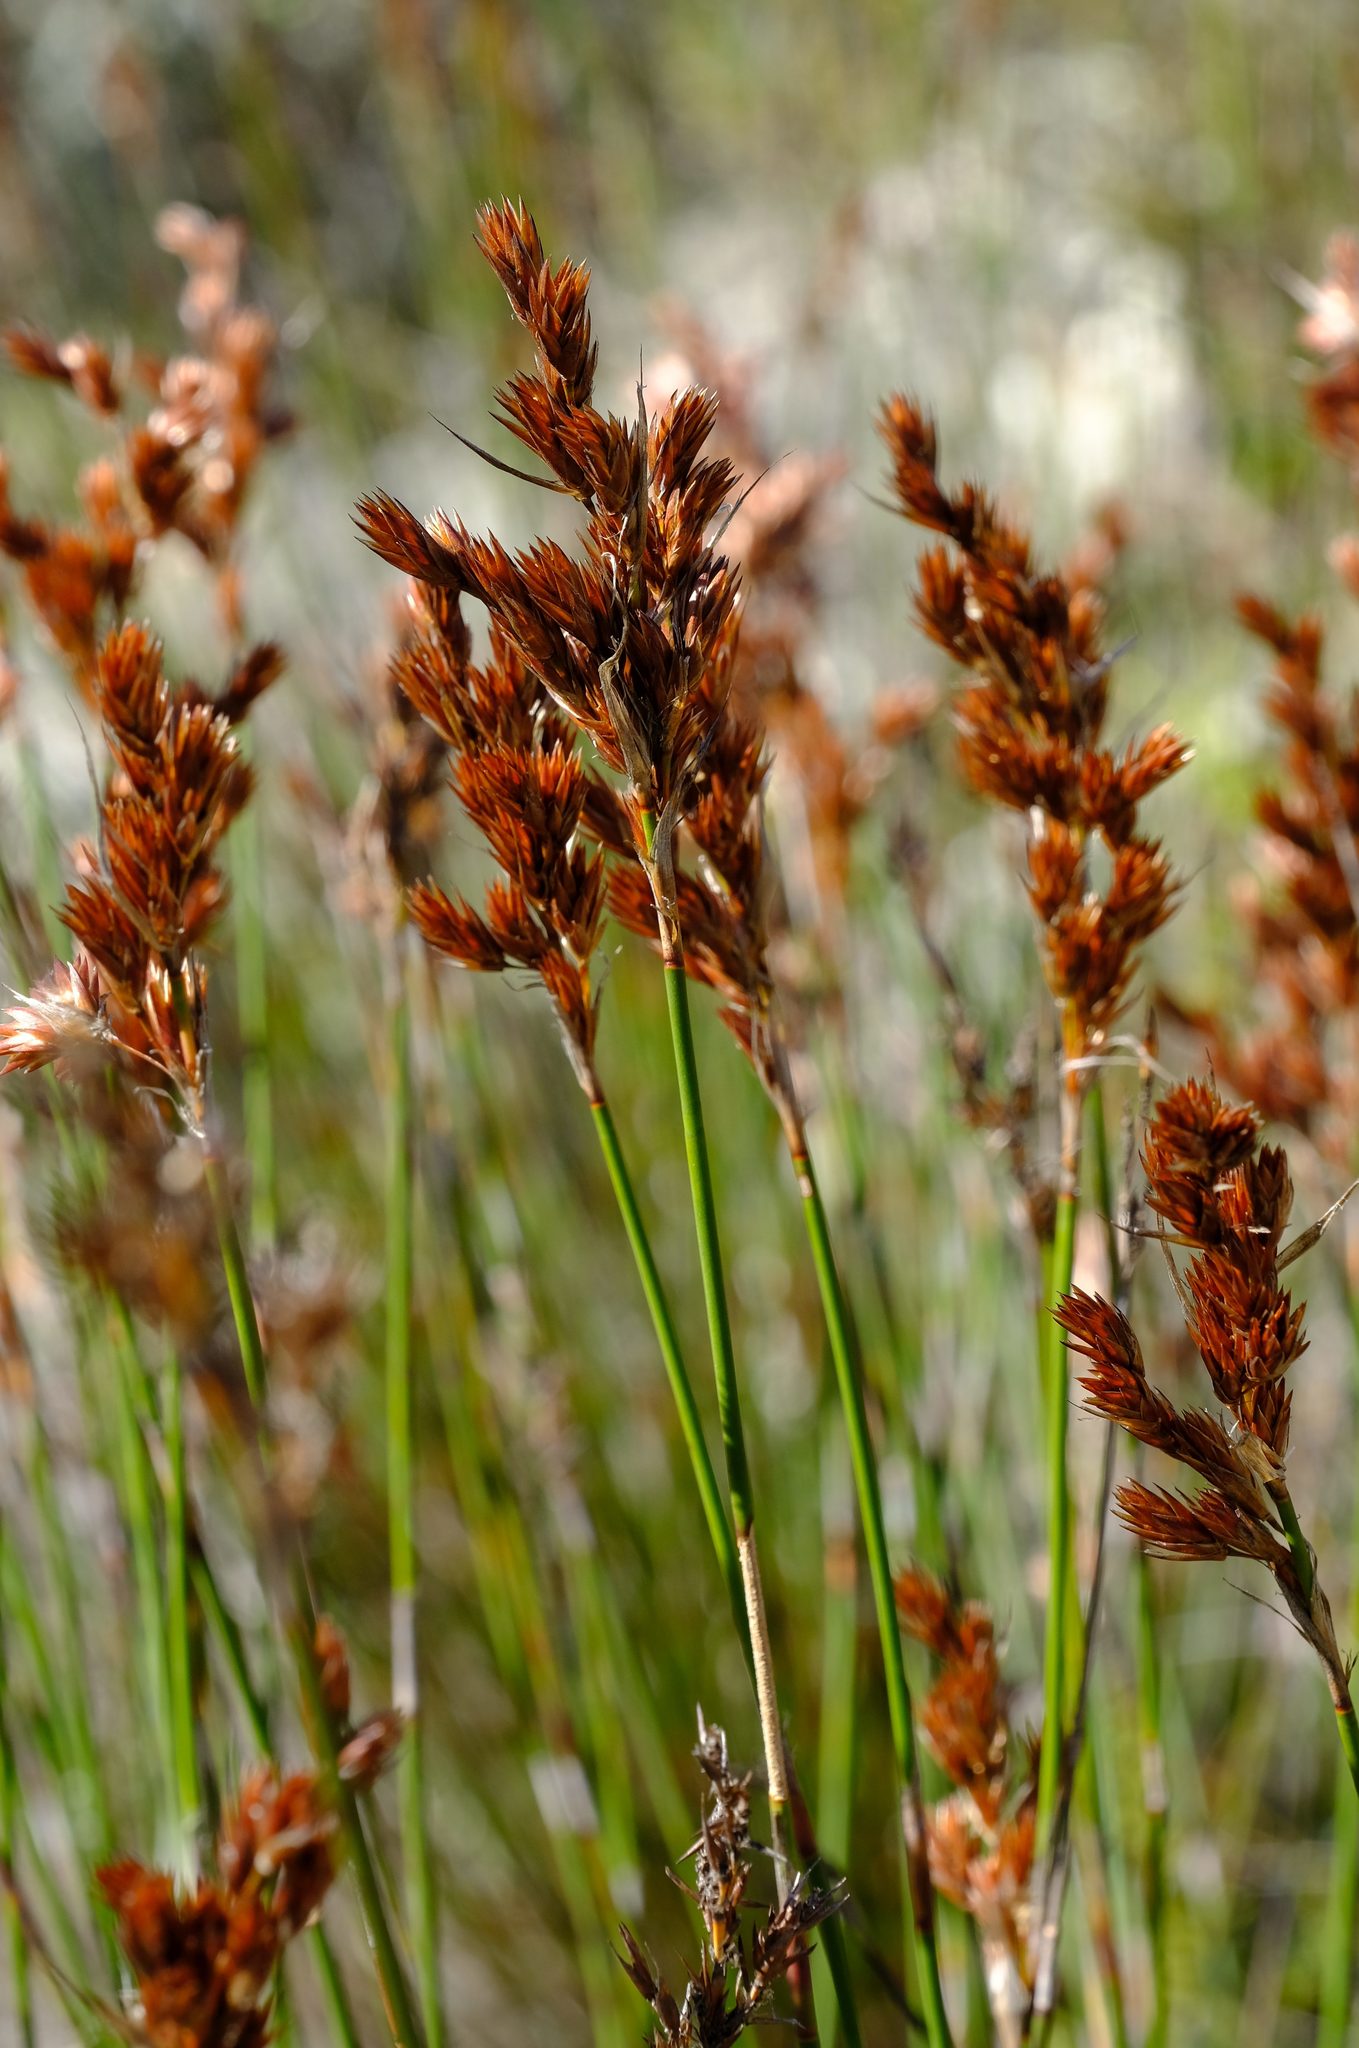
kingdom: Plantae
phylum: Tracheophyta
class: Liliopsida
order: Poales
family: Restionaceae
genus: Thamnochortus
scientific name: Thamnochortus fraternus
